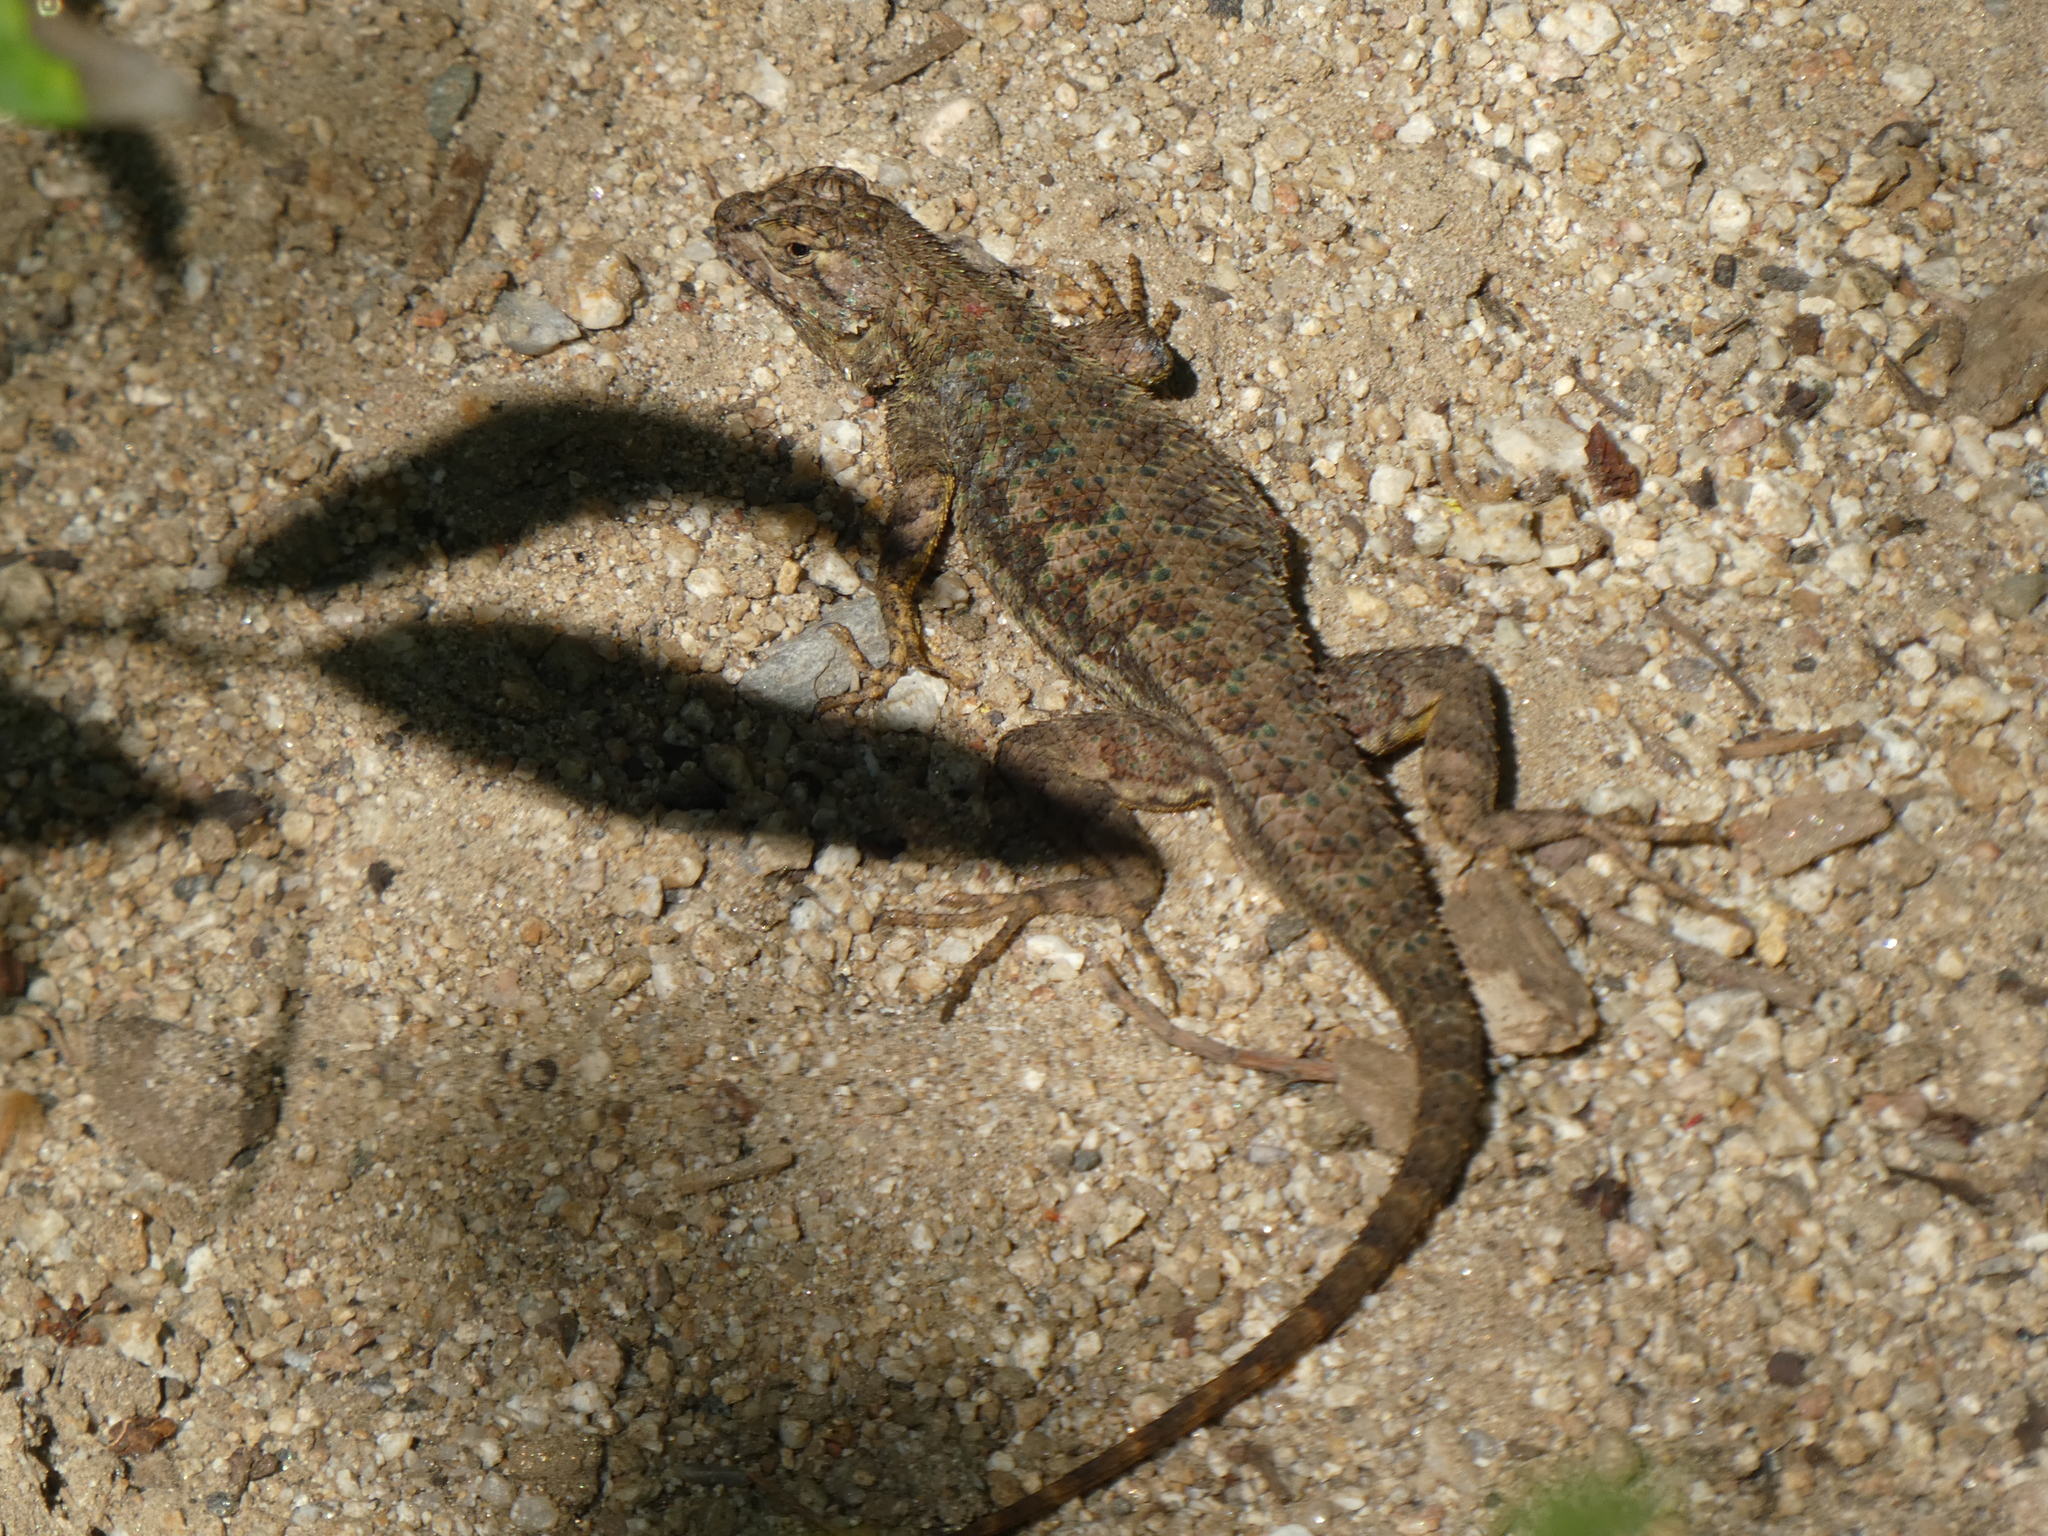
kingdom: Animalia
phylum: Chordata
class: Squamata
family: Phrynosomatidae
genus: Sceloporus
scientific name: Sceloporus occidentalis
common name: Western fence lizard
